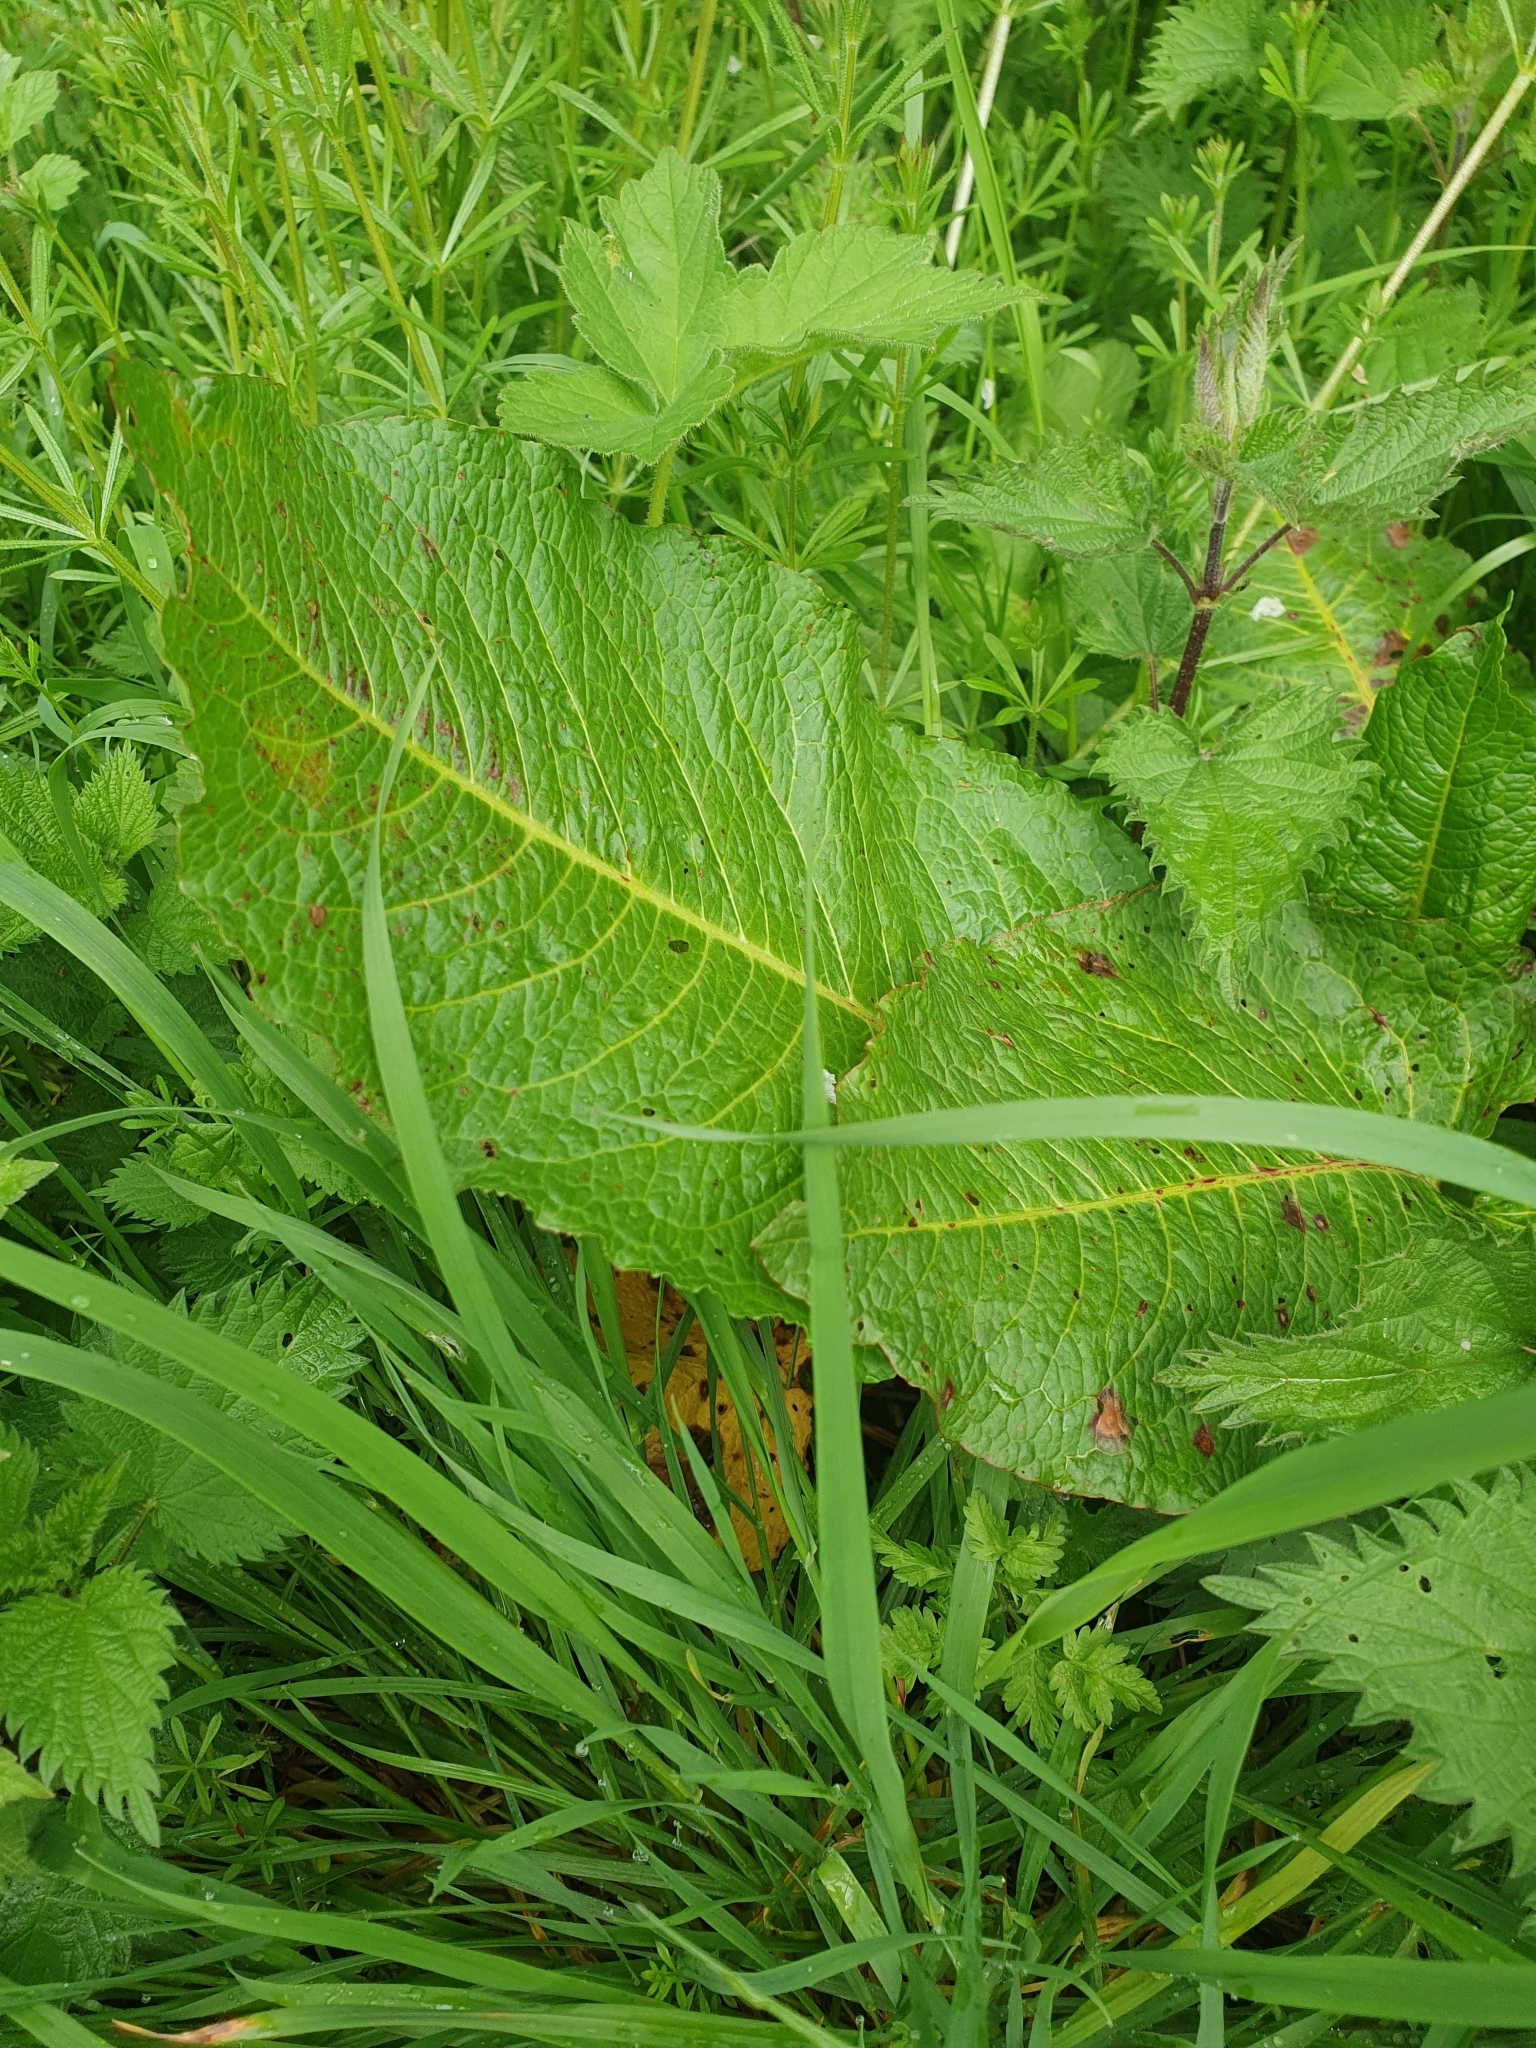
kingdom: Plantae
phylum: Tracheophyta
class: Magnoliopsida
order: Caryophyllales
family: Polygonaceae
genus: Rumex
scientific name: Rumex obtusifolius
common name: Bitter dock
